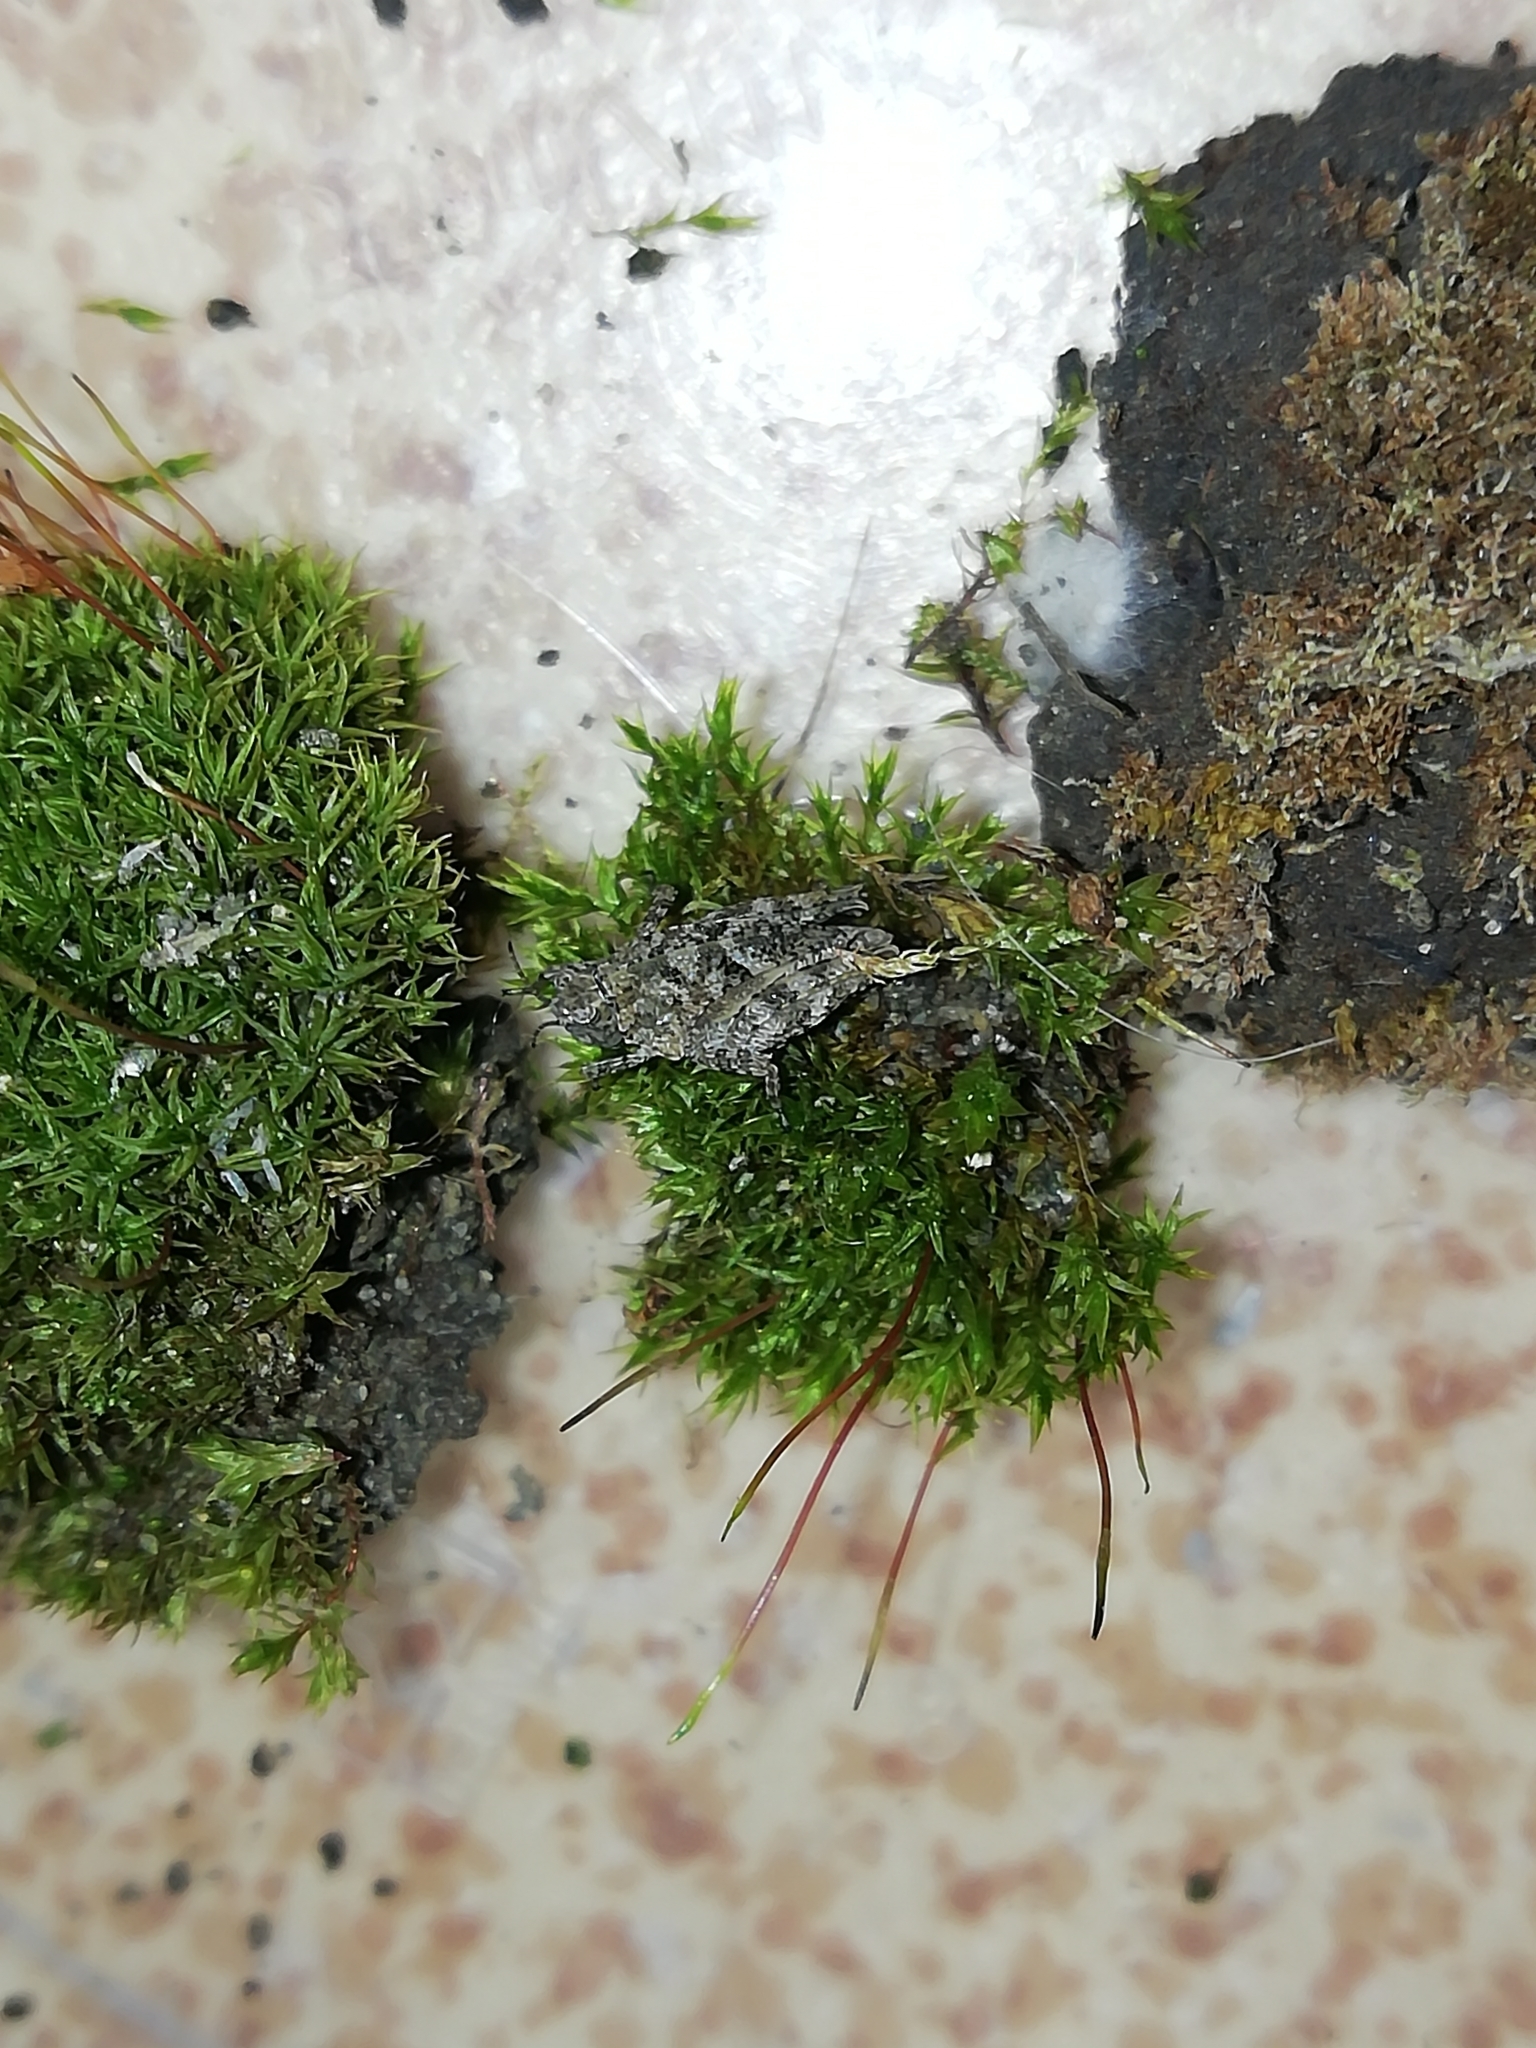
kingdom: Animalia
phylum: Arthropoda
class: Insecta
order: Orthoptera
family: Tetrigidae
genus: Tetrix
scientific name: Tetrix tenuicornis
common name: Long-horned groundhopper
